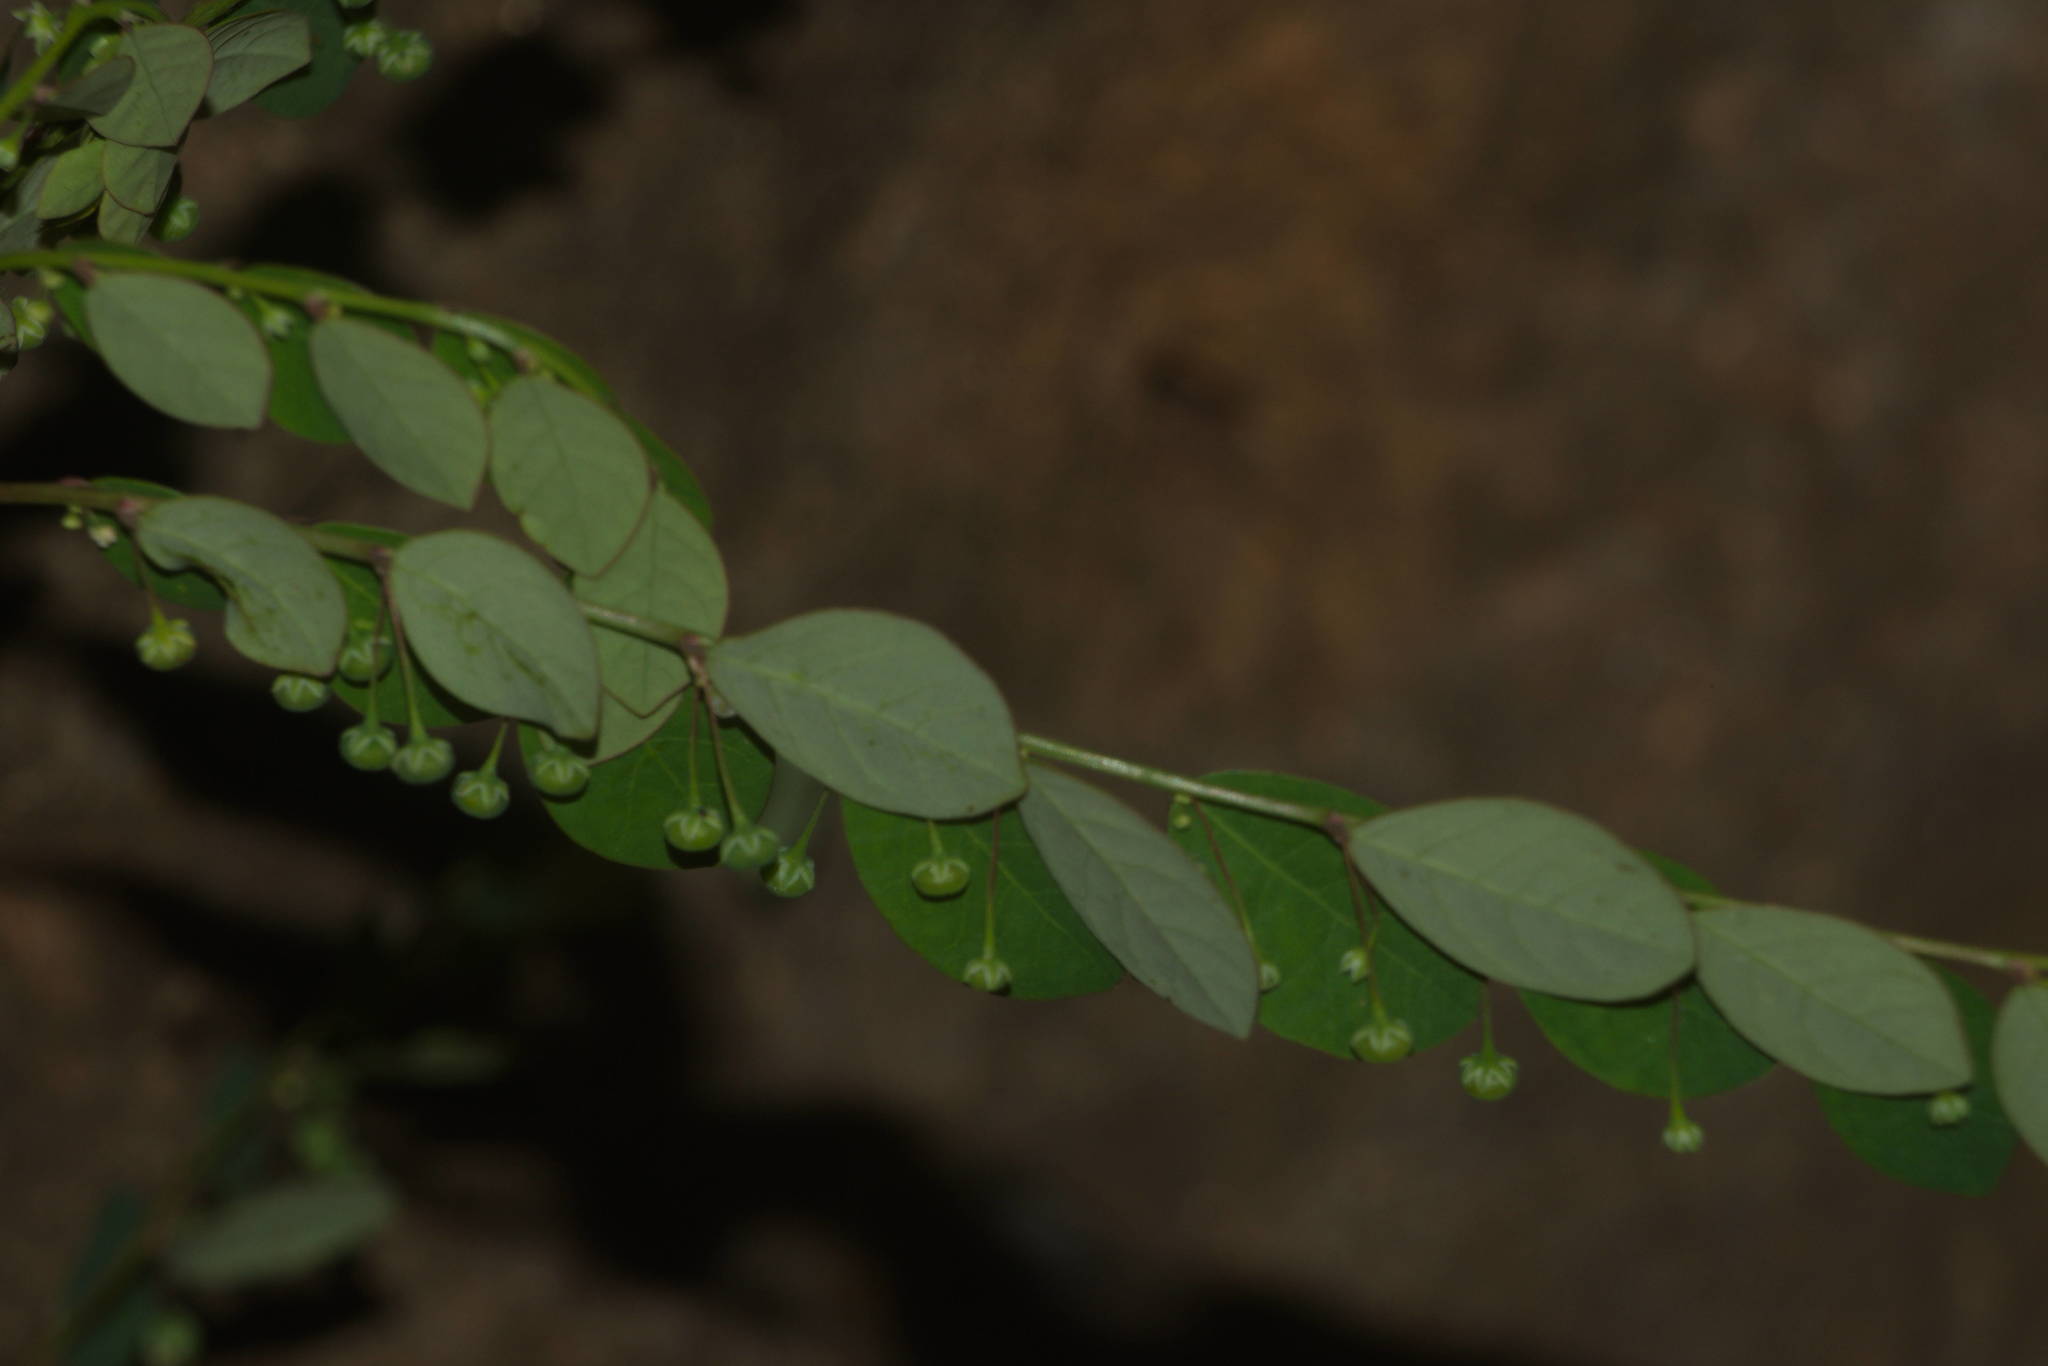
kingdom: Plantae
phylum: Tracheophyta
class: Magnoliopsida
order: Malpighiales
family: Phyllanthaceae
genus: Phyllanthus
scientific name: Phyllanthus tenellus
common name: Mascarene island leaf-flower
